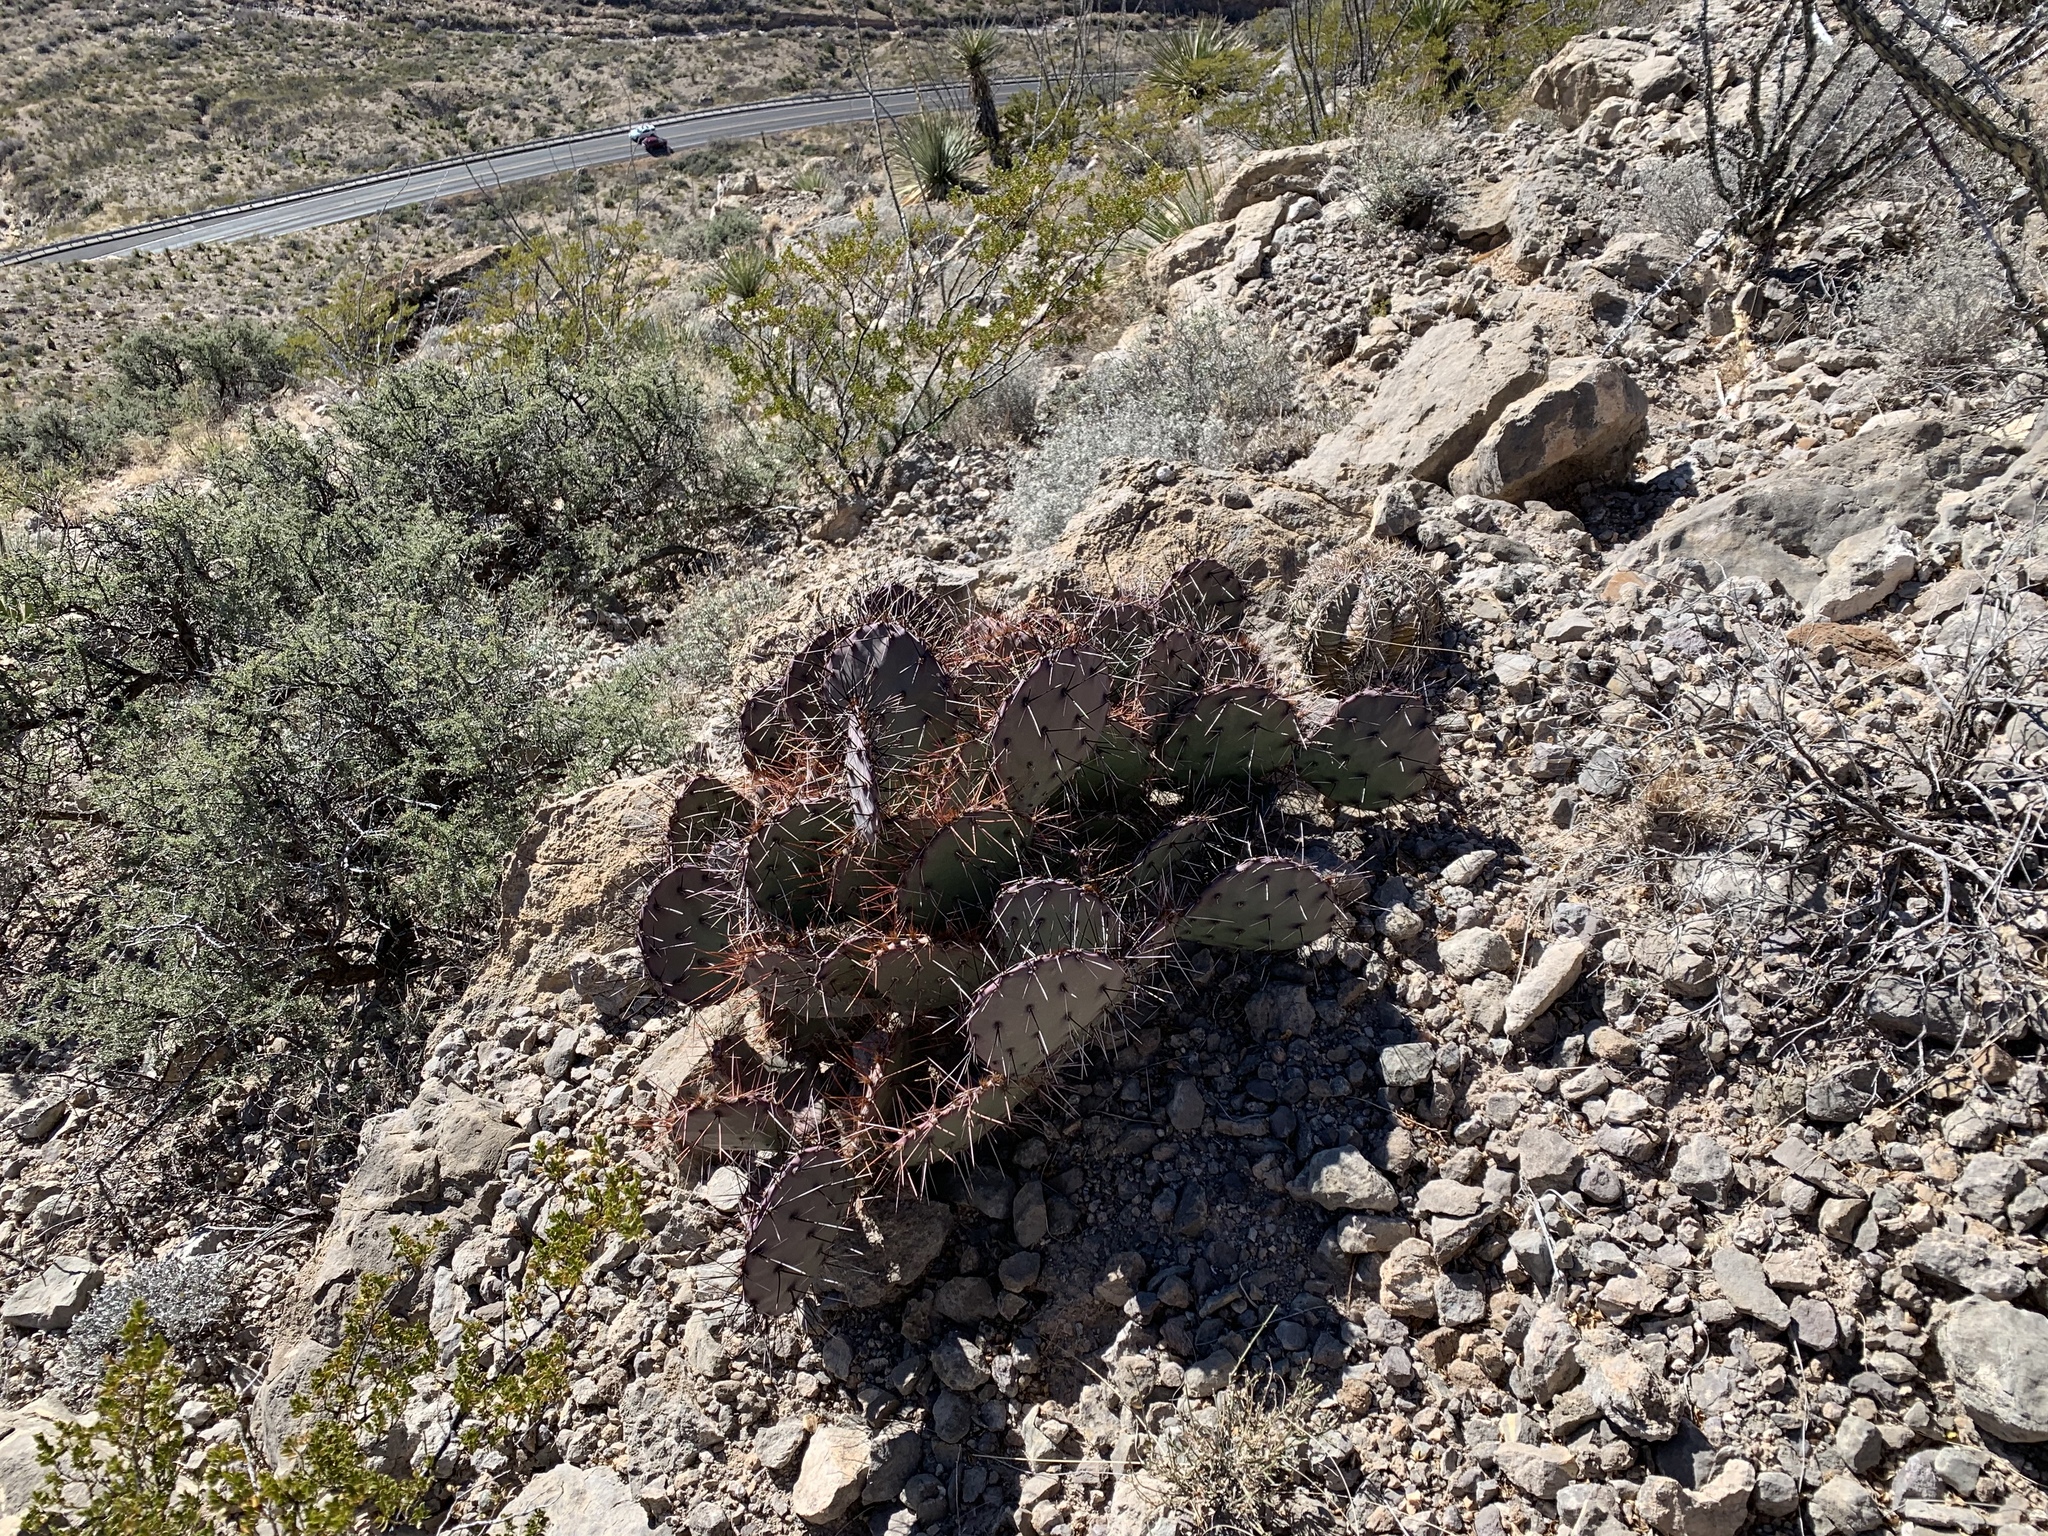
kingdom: Plantae
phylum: Tracheophyta
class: Magnoliopsida
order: Caryophyllales
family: Cactaceae
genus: Opuntia
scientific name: Opuntia macrocentra
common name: Purple prickly-pear
